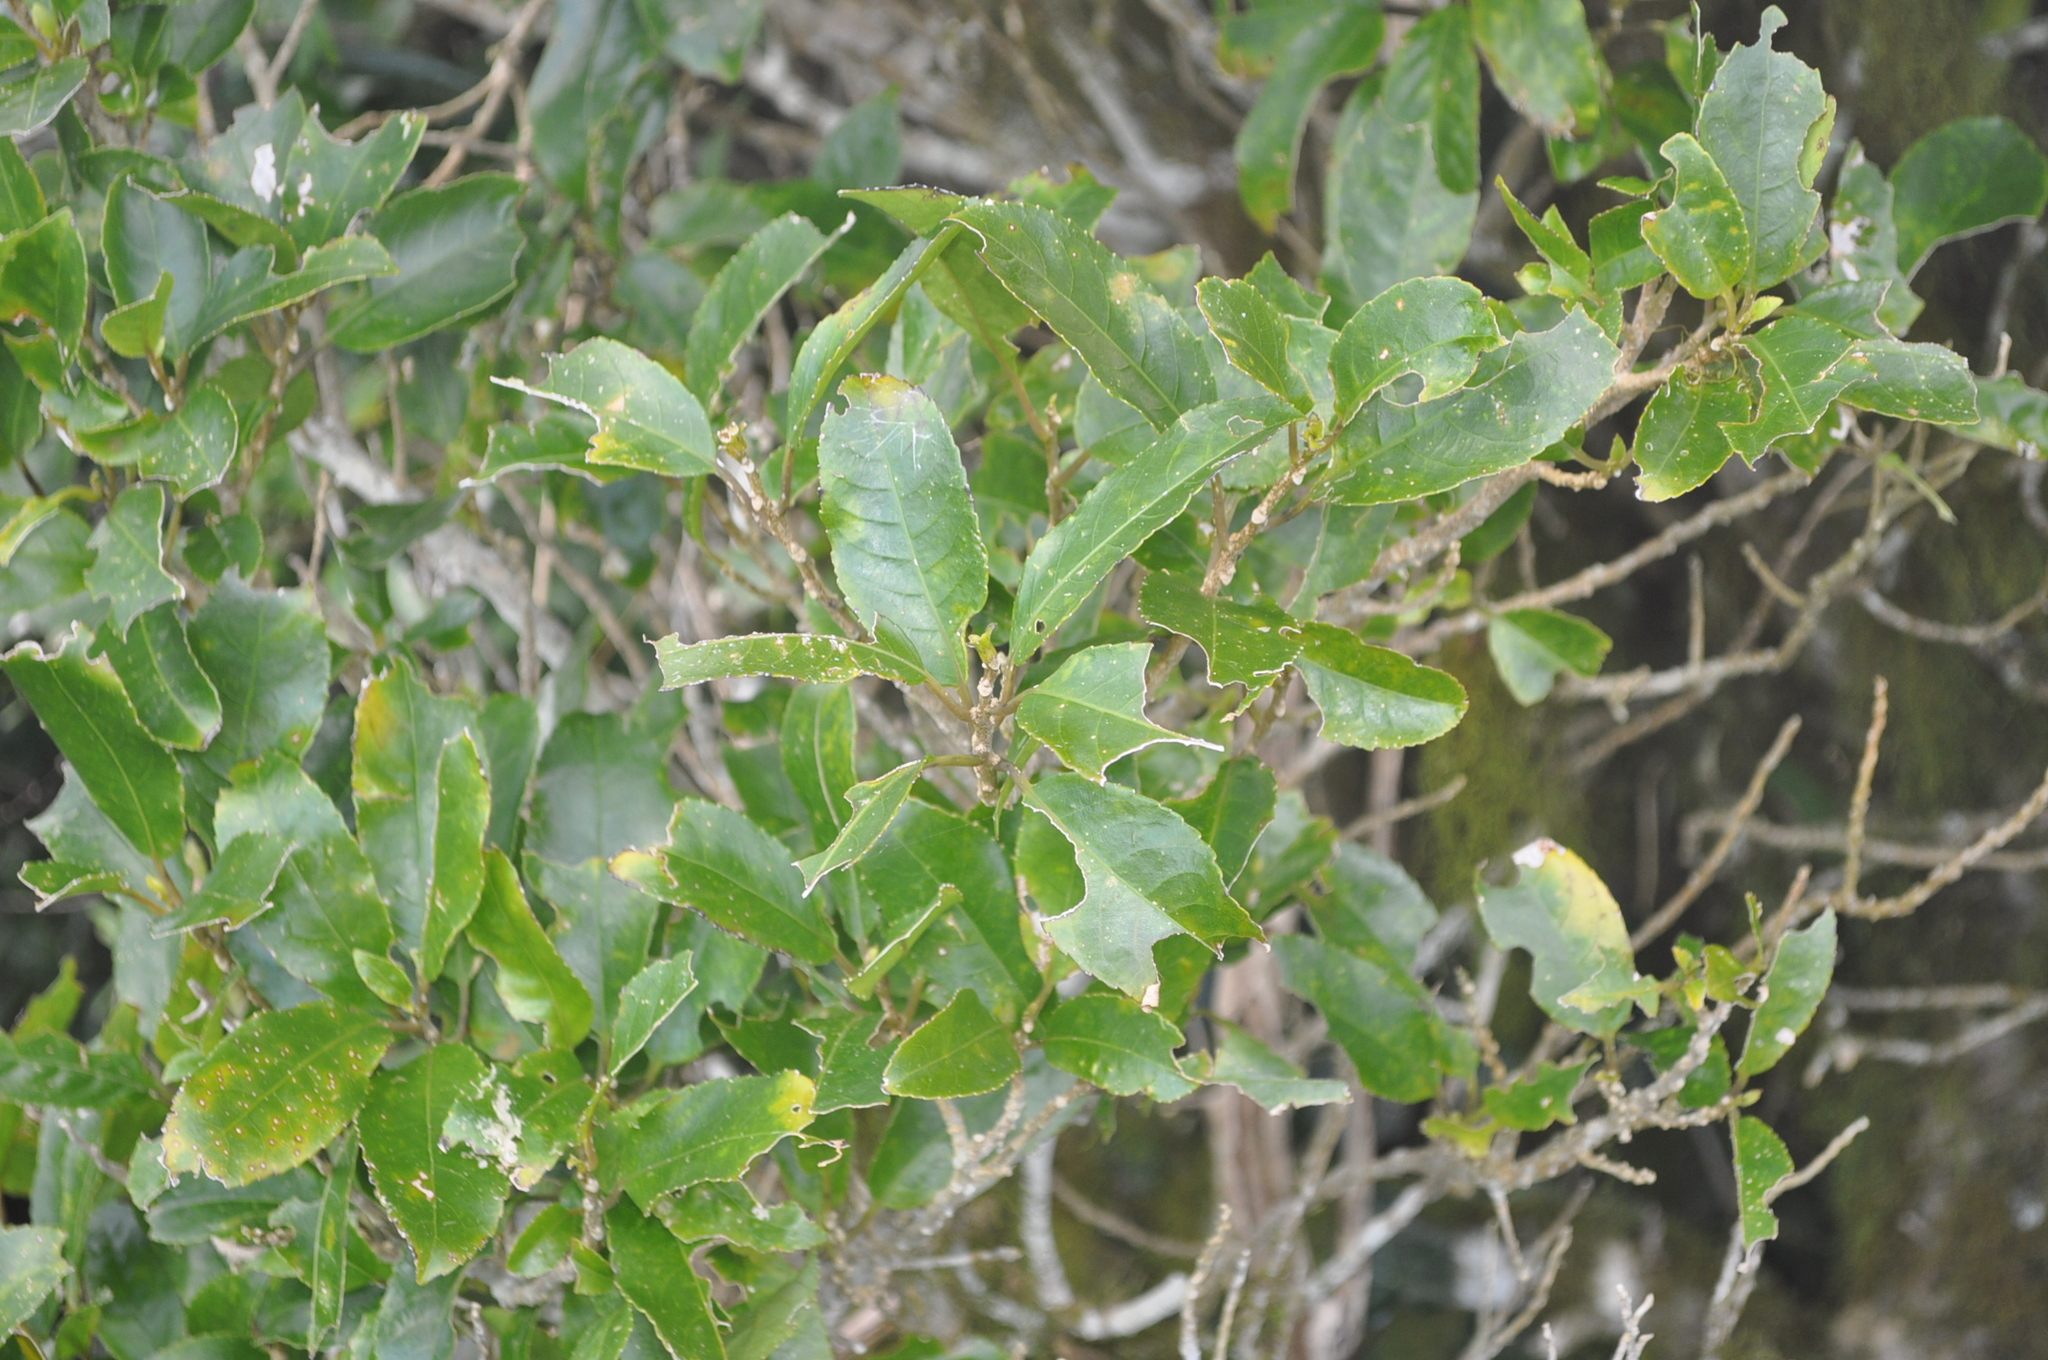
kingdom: Plantae
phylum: Tracheophyta
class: Magnoliopsida
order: Malpighiales
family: Violaceae
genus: Melicytus
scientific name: Melicytus ramiflorus
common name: Mahoe
